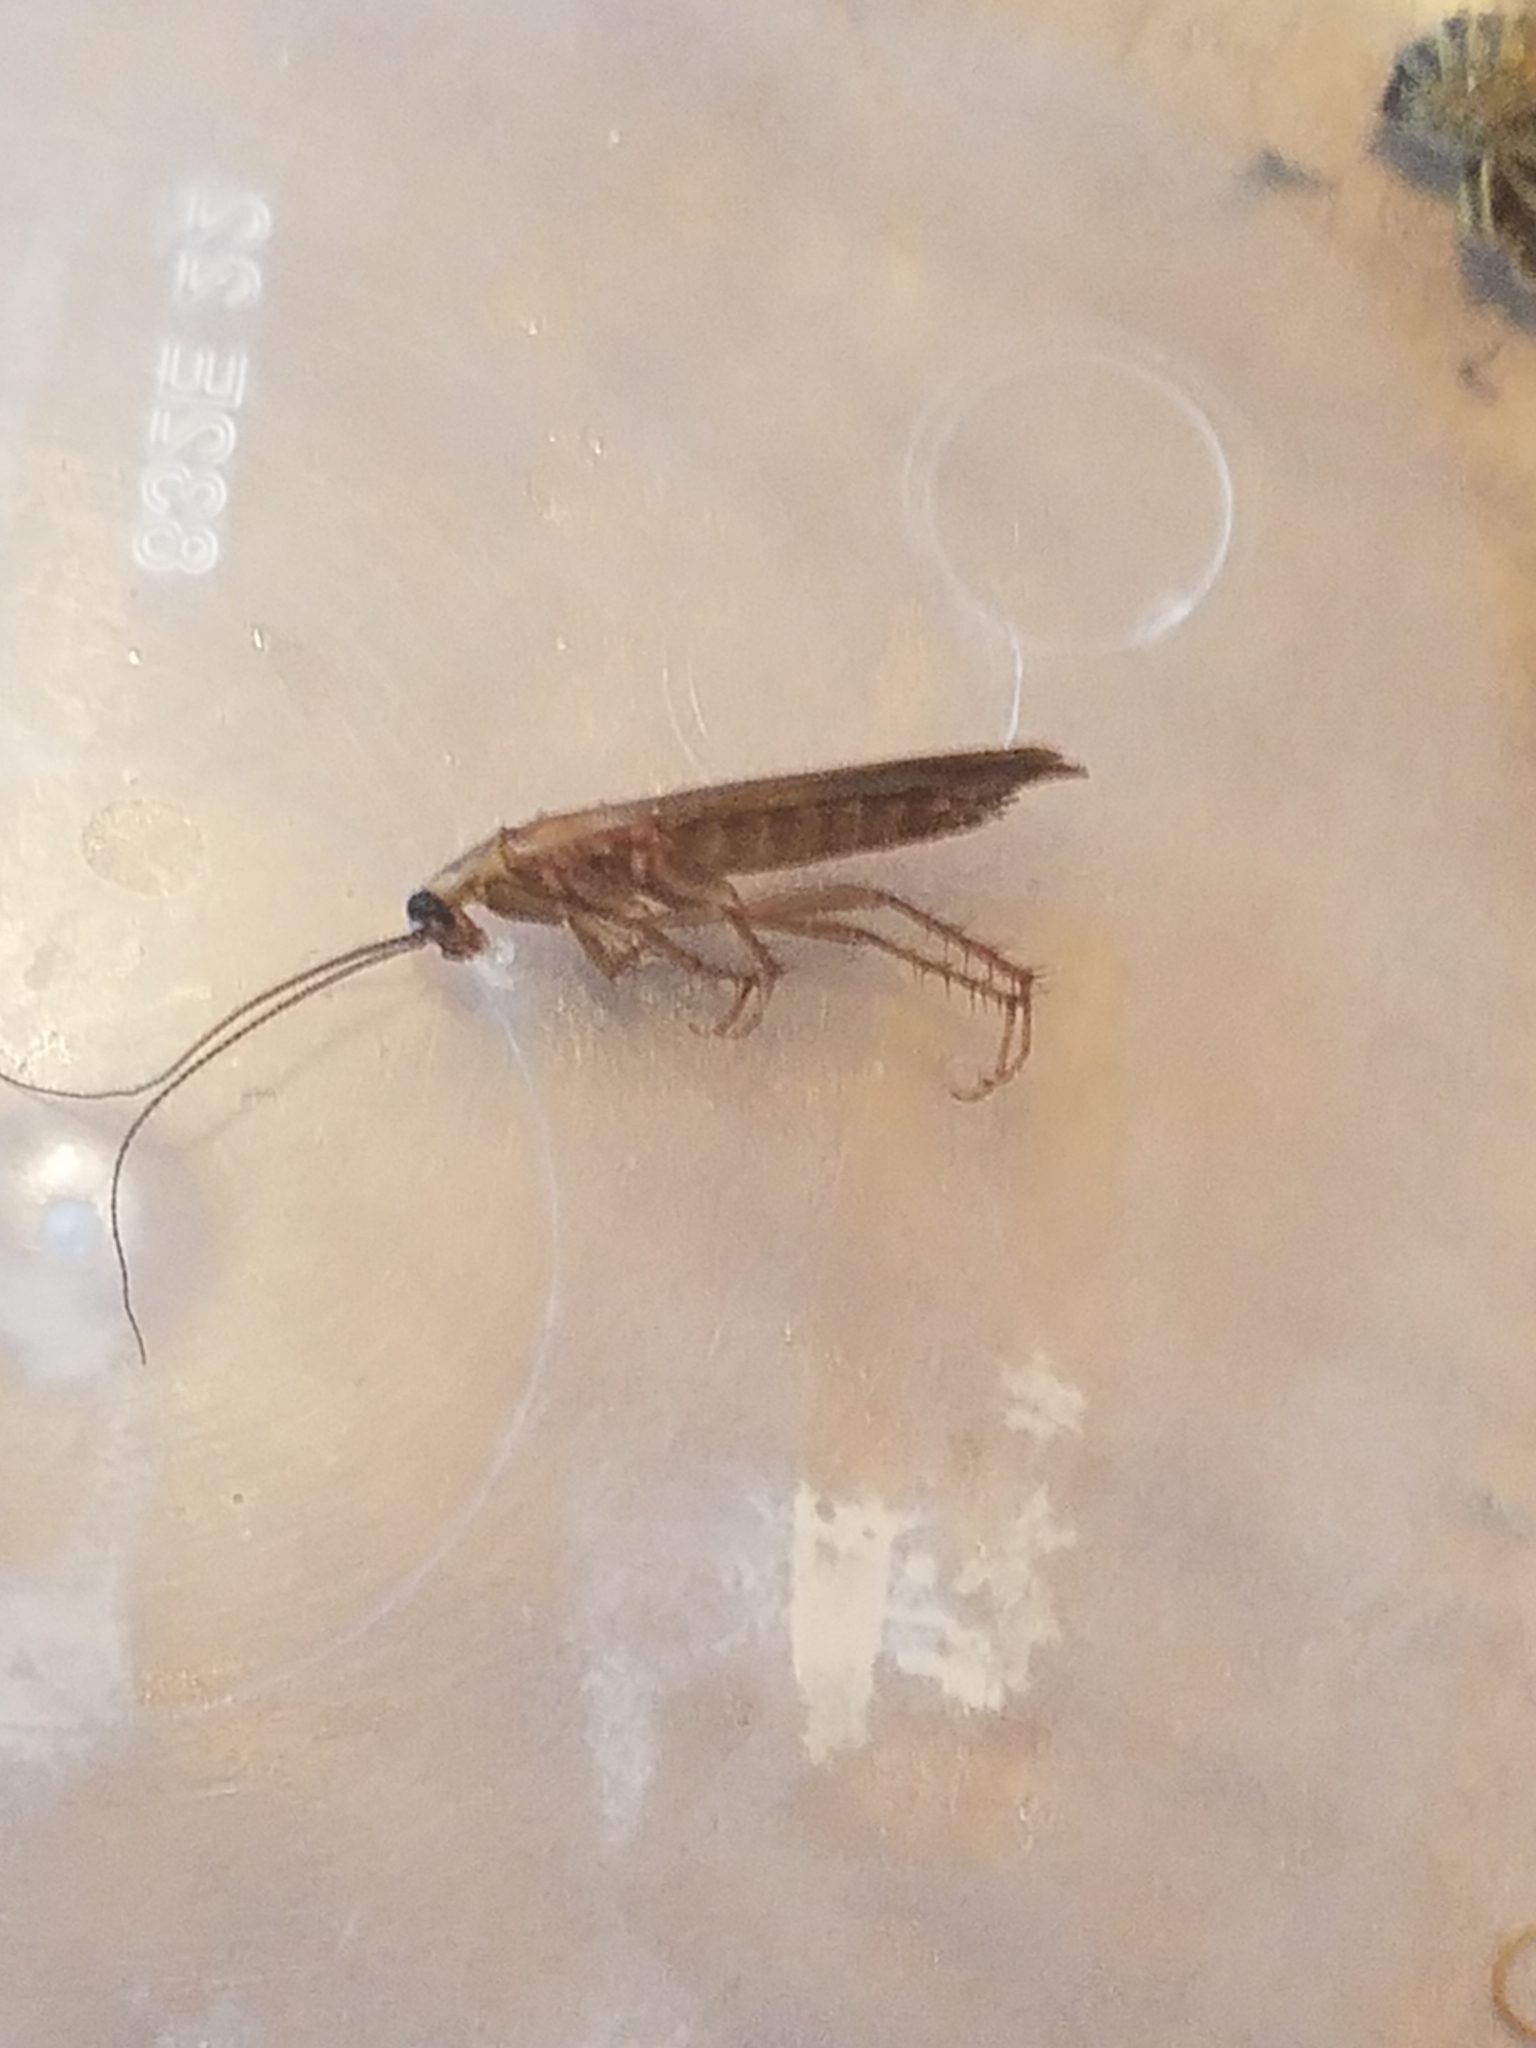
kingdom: Animalia
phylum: Arthropoda
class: Insecta
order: Blattodea
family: Ectobiidae
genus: Parcoblatta
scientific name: Parcoblatta
